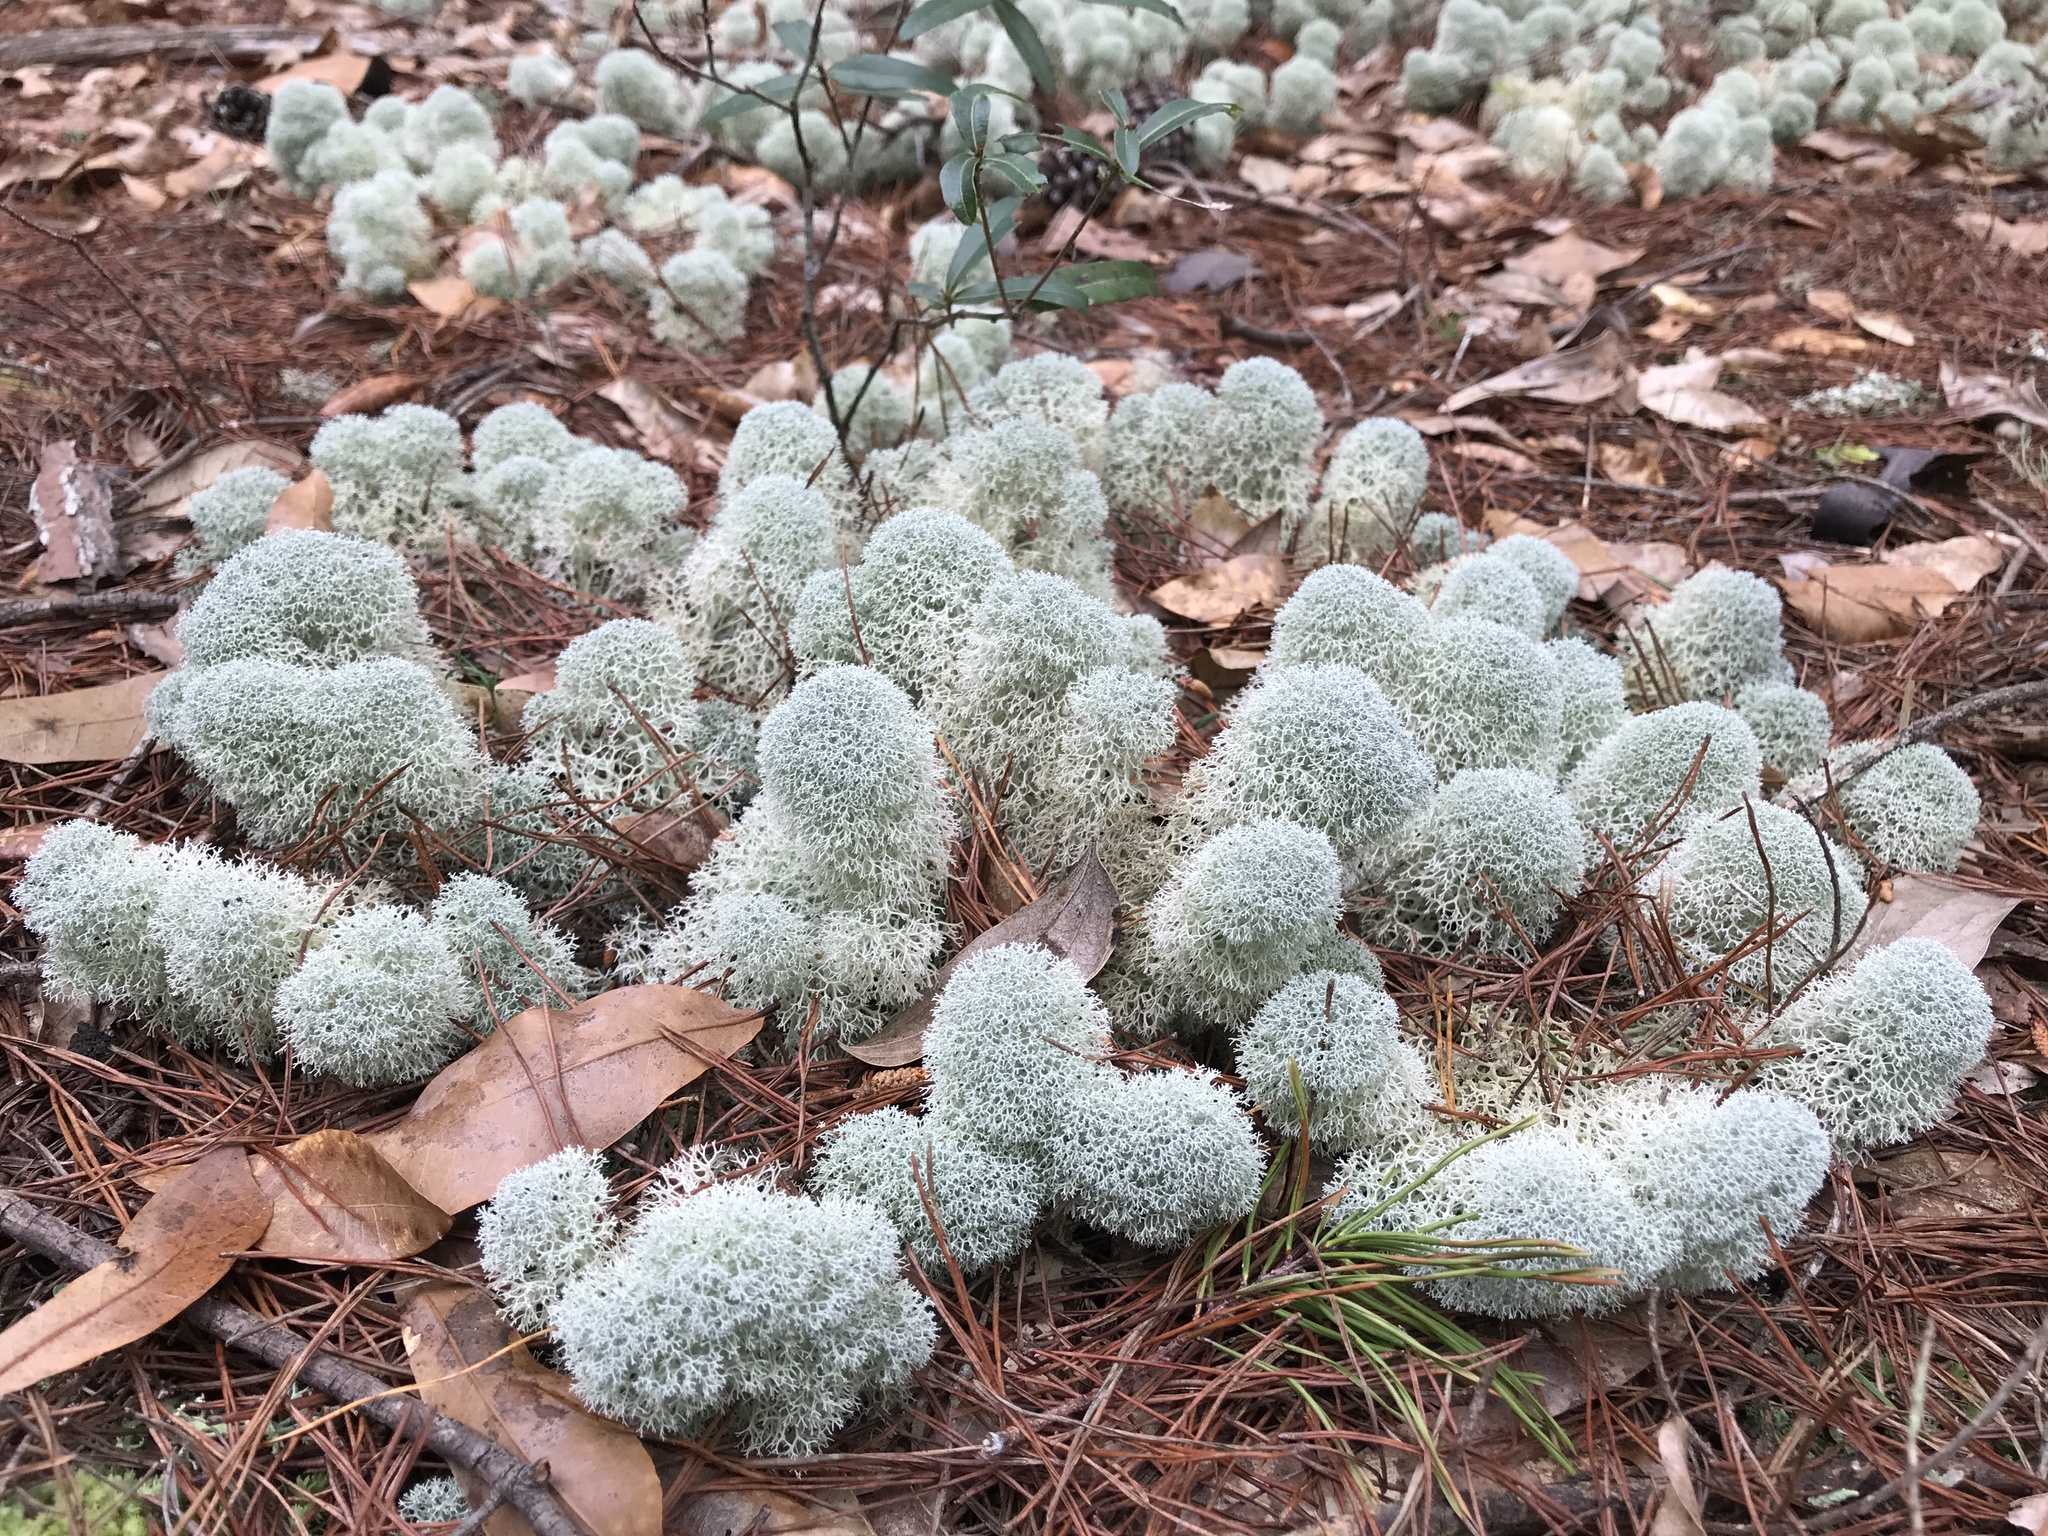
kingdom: Fungi
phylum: Ascomycota
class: Lecanoromycetes
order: Lecanorales
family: Cladoniaceae
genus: Cladonia
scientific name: Cladonia evansii
